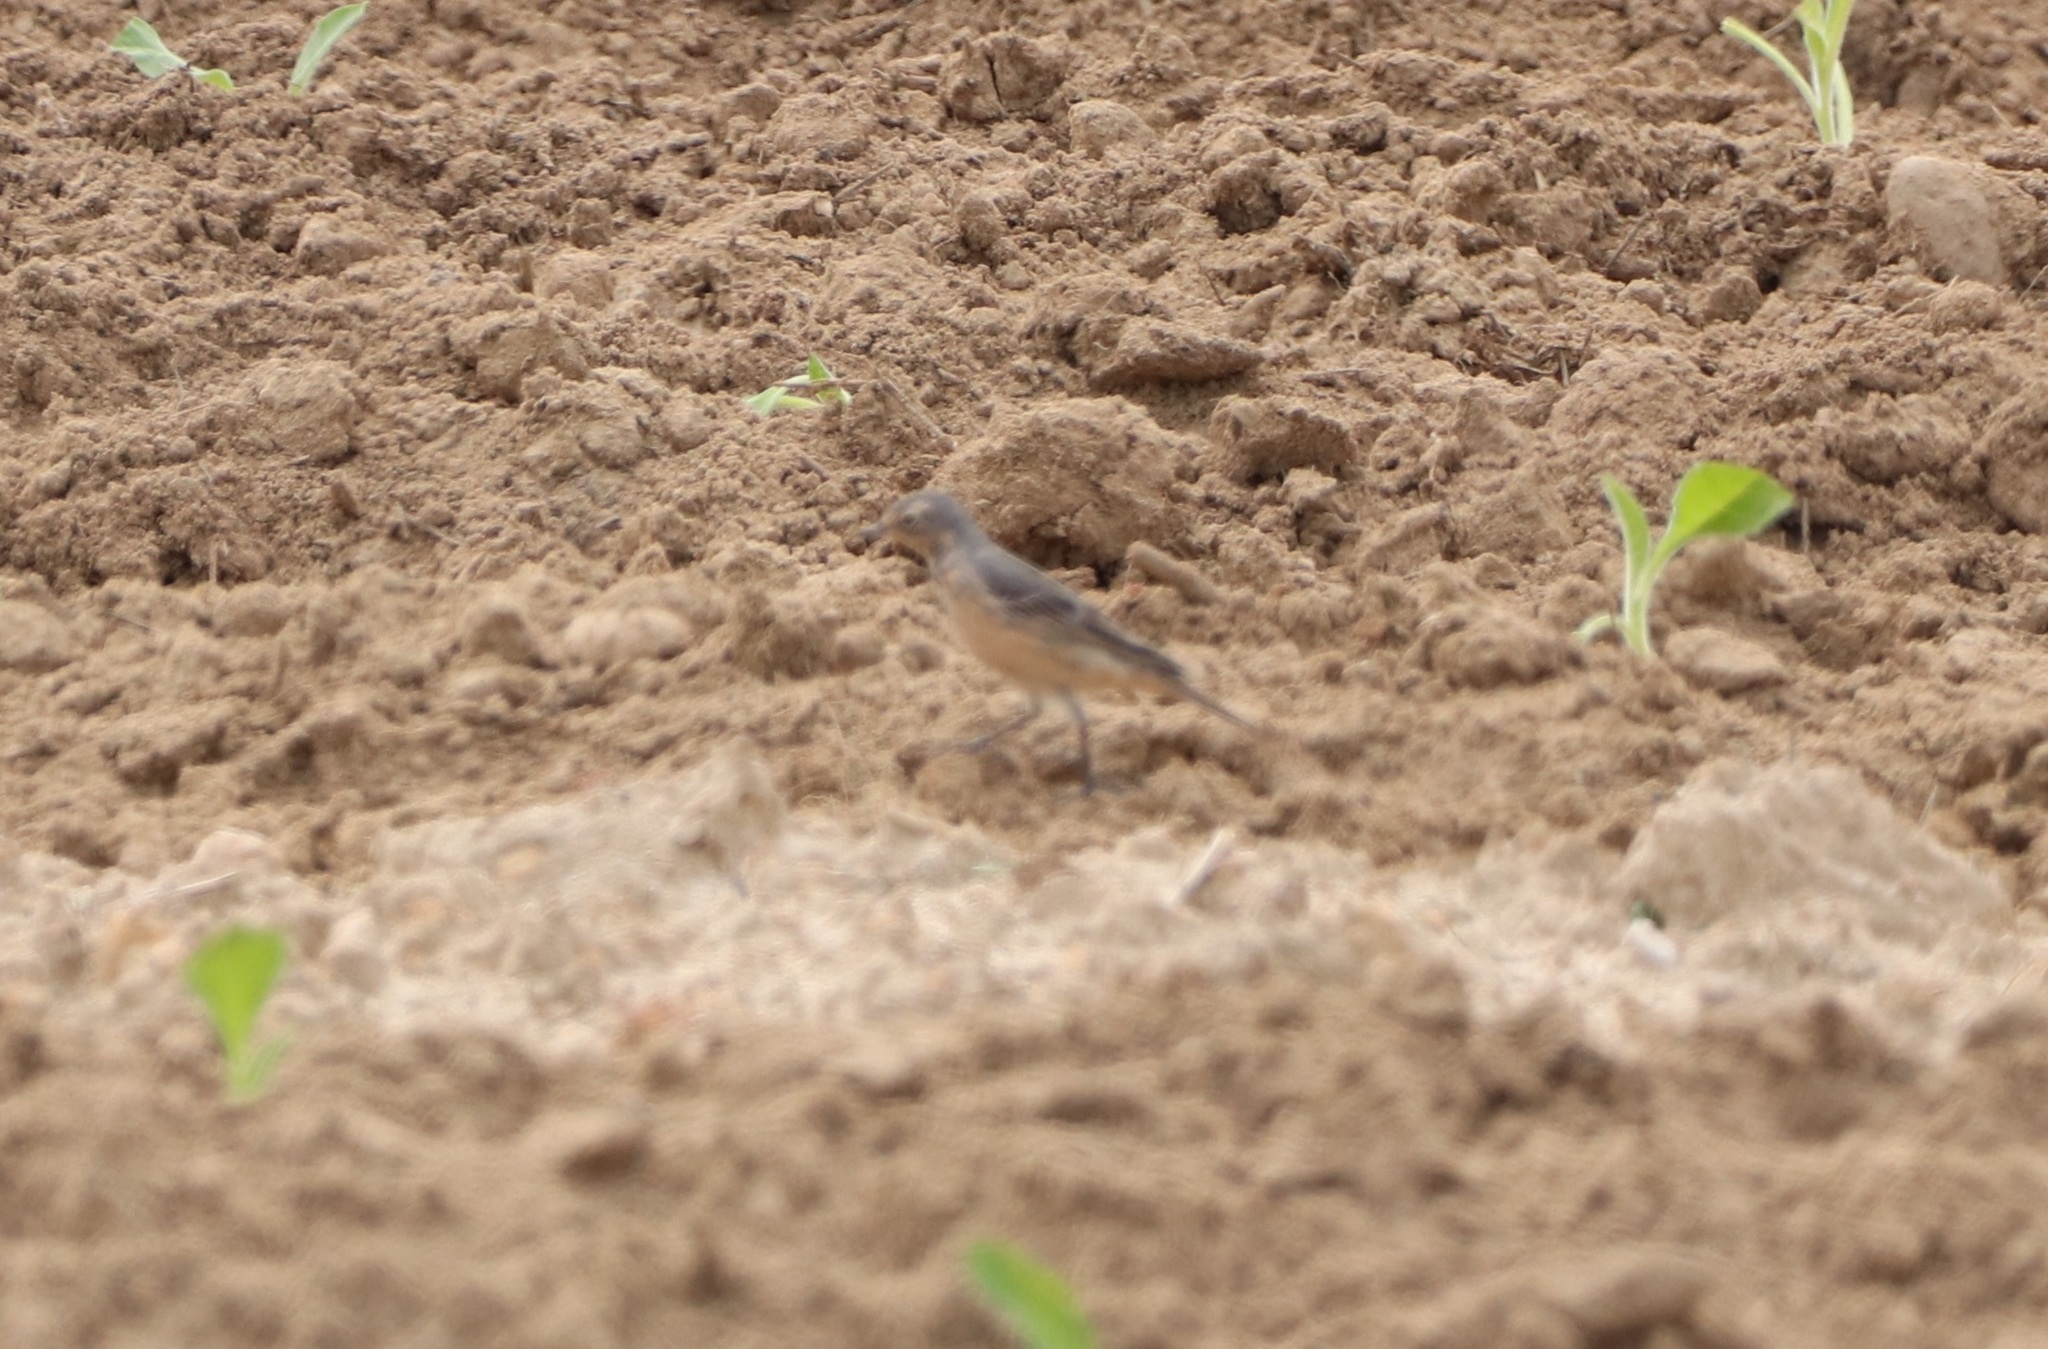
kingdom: Animalia
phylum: Chordata
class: Aves
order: Passeriformes
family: Motacillidae
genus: Anthus
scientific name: Anthus rubescens
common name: Buff-bellied pipit
